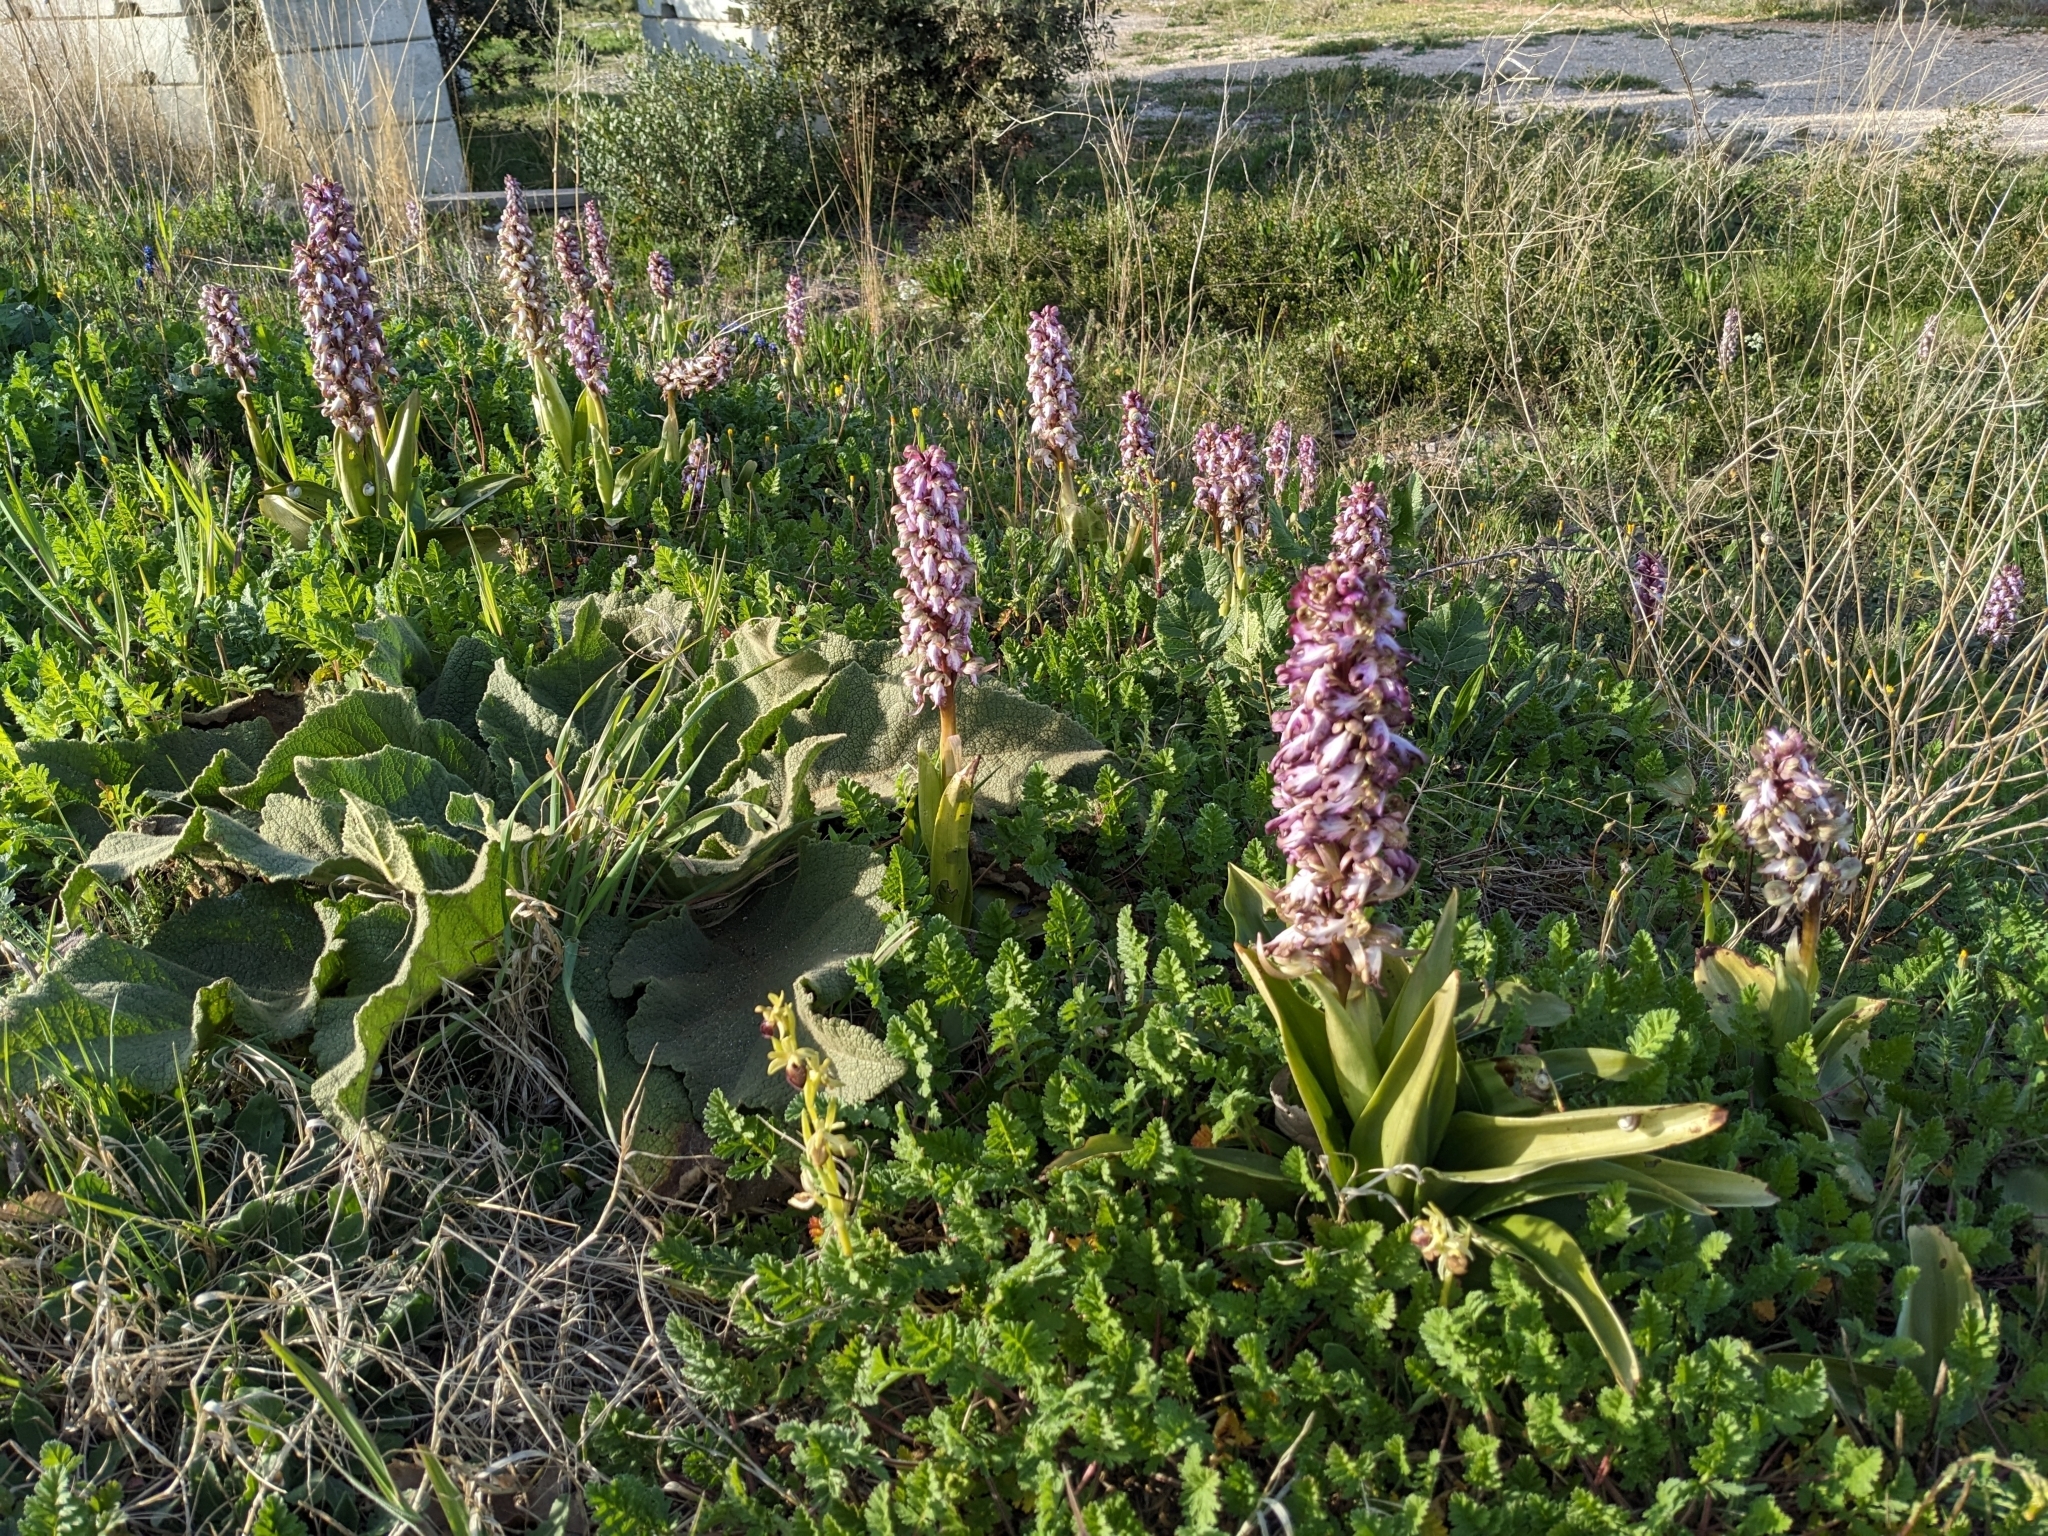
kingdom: Plantae
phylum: Tracheophyta
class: Liliopsida
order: Asparagales
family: Orchidaceae
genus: Himantoglossum
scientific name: Himantoglossum robertianum
